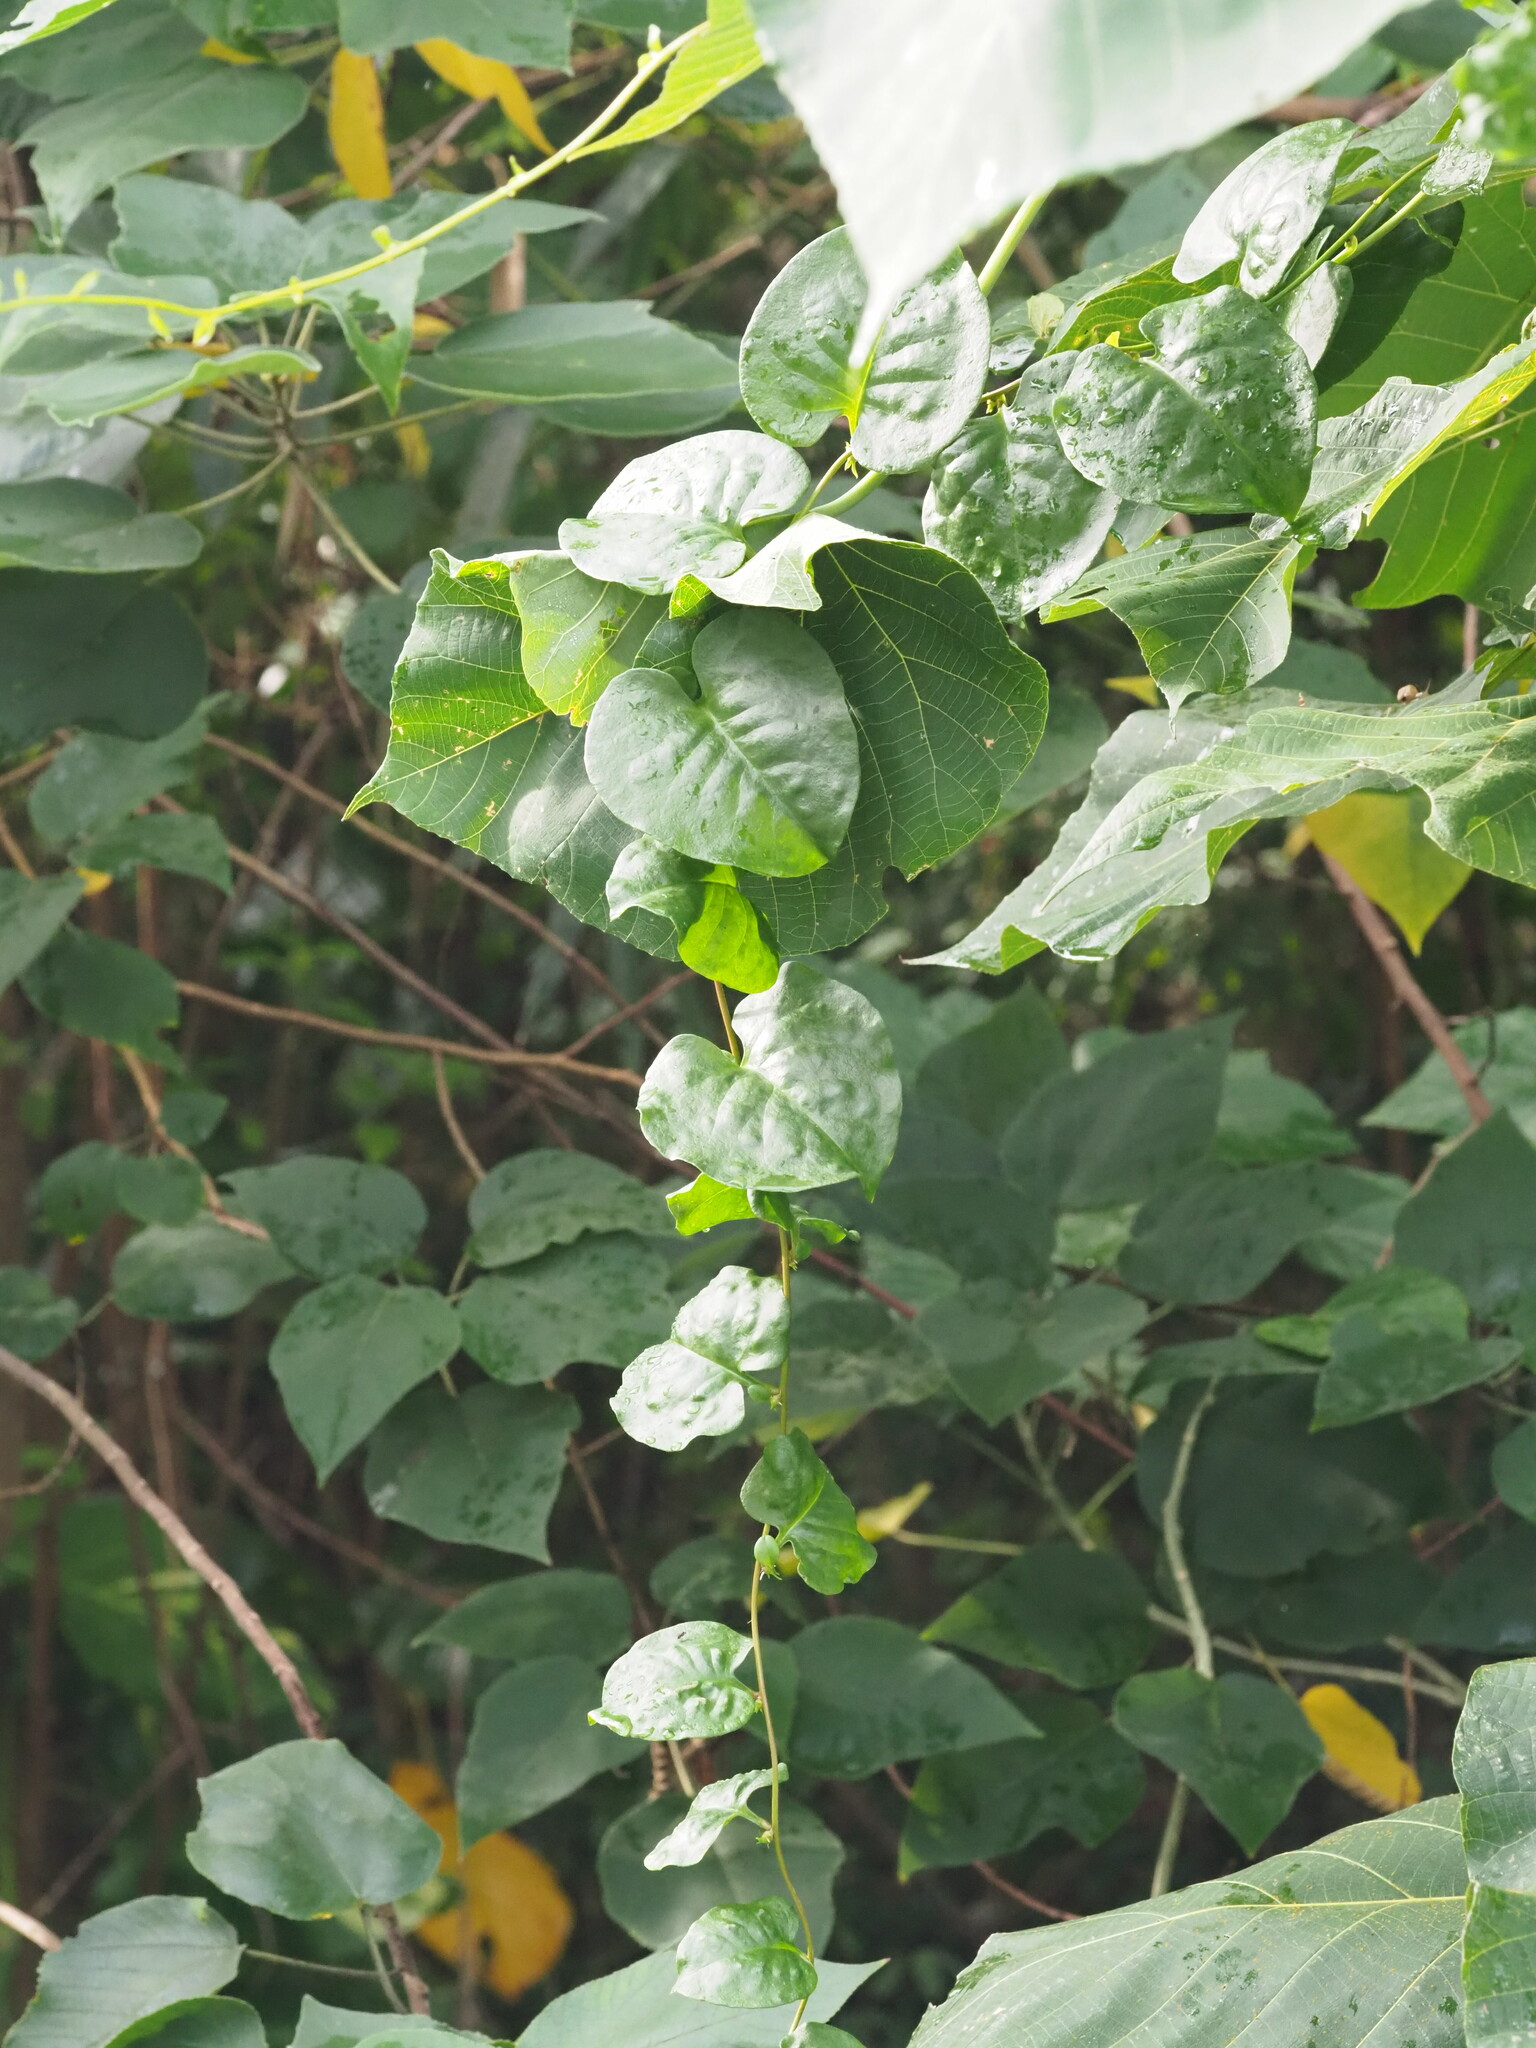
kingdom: Plantae
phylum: Tracheophyta
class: Magnoliopsida
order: Caryophyllales
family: Basellaceae
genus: Anredera
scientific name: Anredera cordifolia
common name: Heartleaf madeiravine
